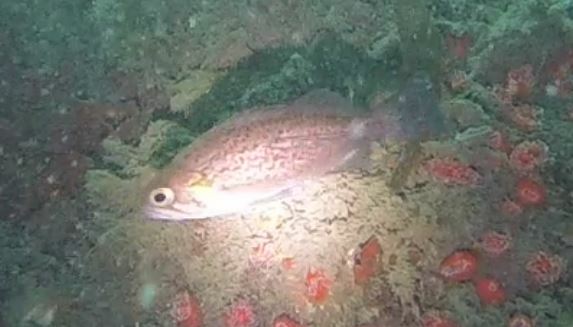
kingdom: Animalia
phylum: Chordata
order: Scorpaeniformes
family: Sebastidae
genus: Sebastes
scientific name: Sebastes mystinus
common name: Blue rockfish
